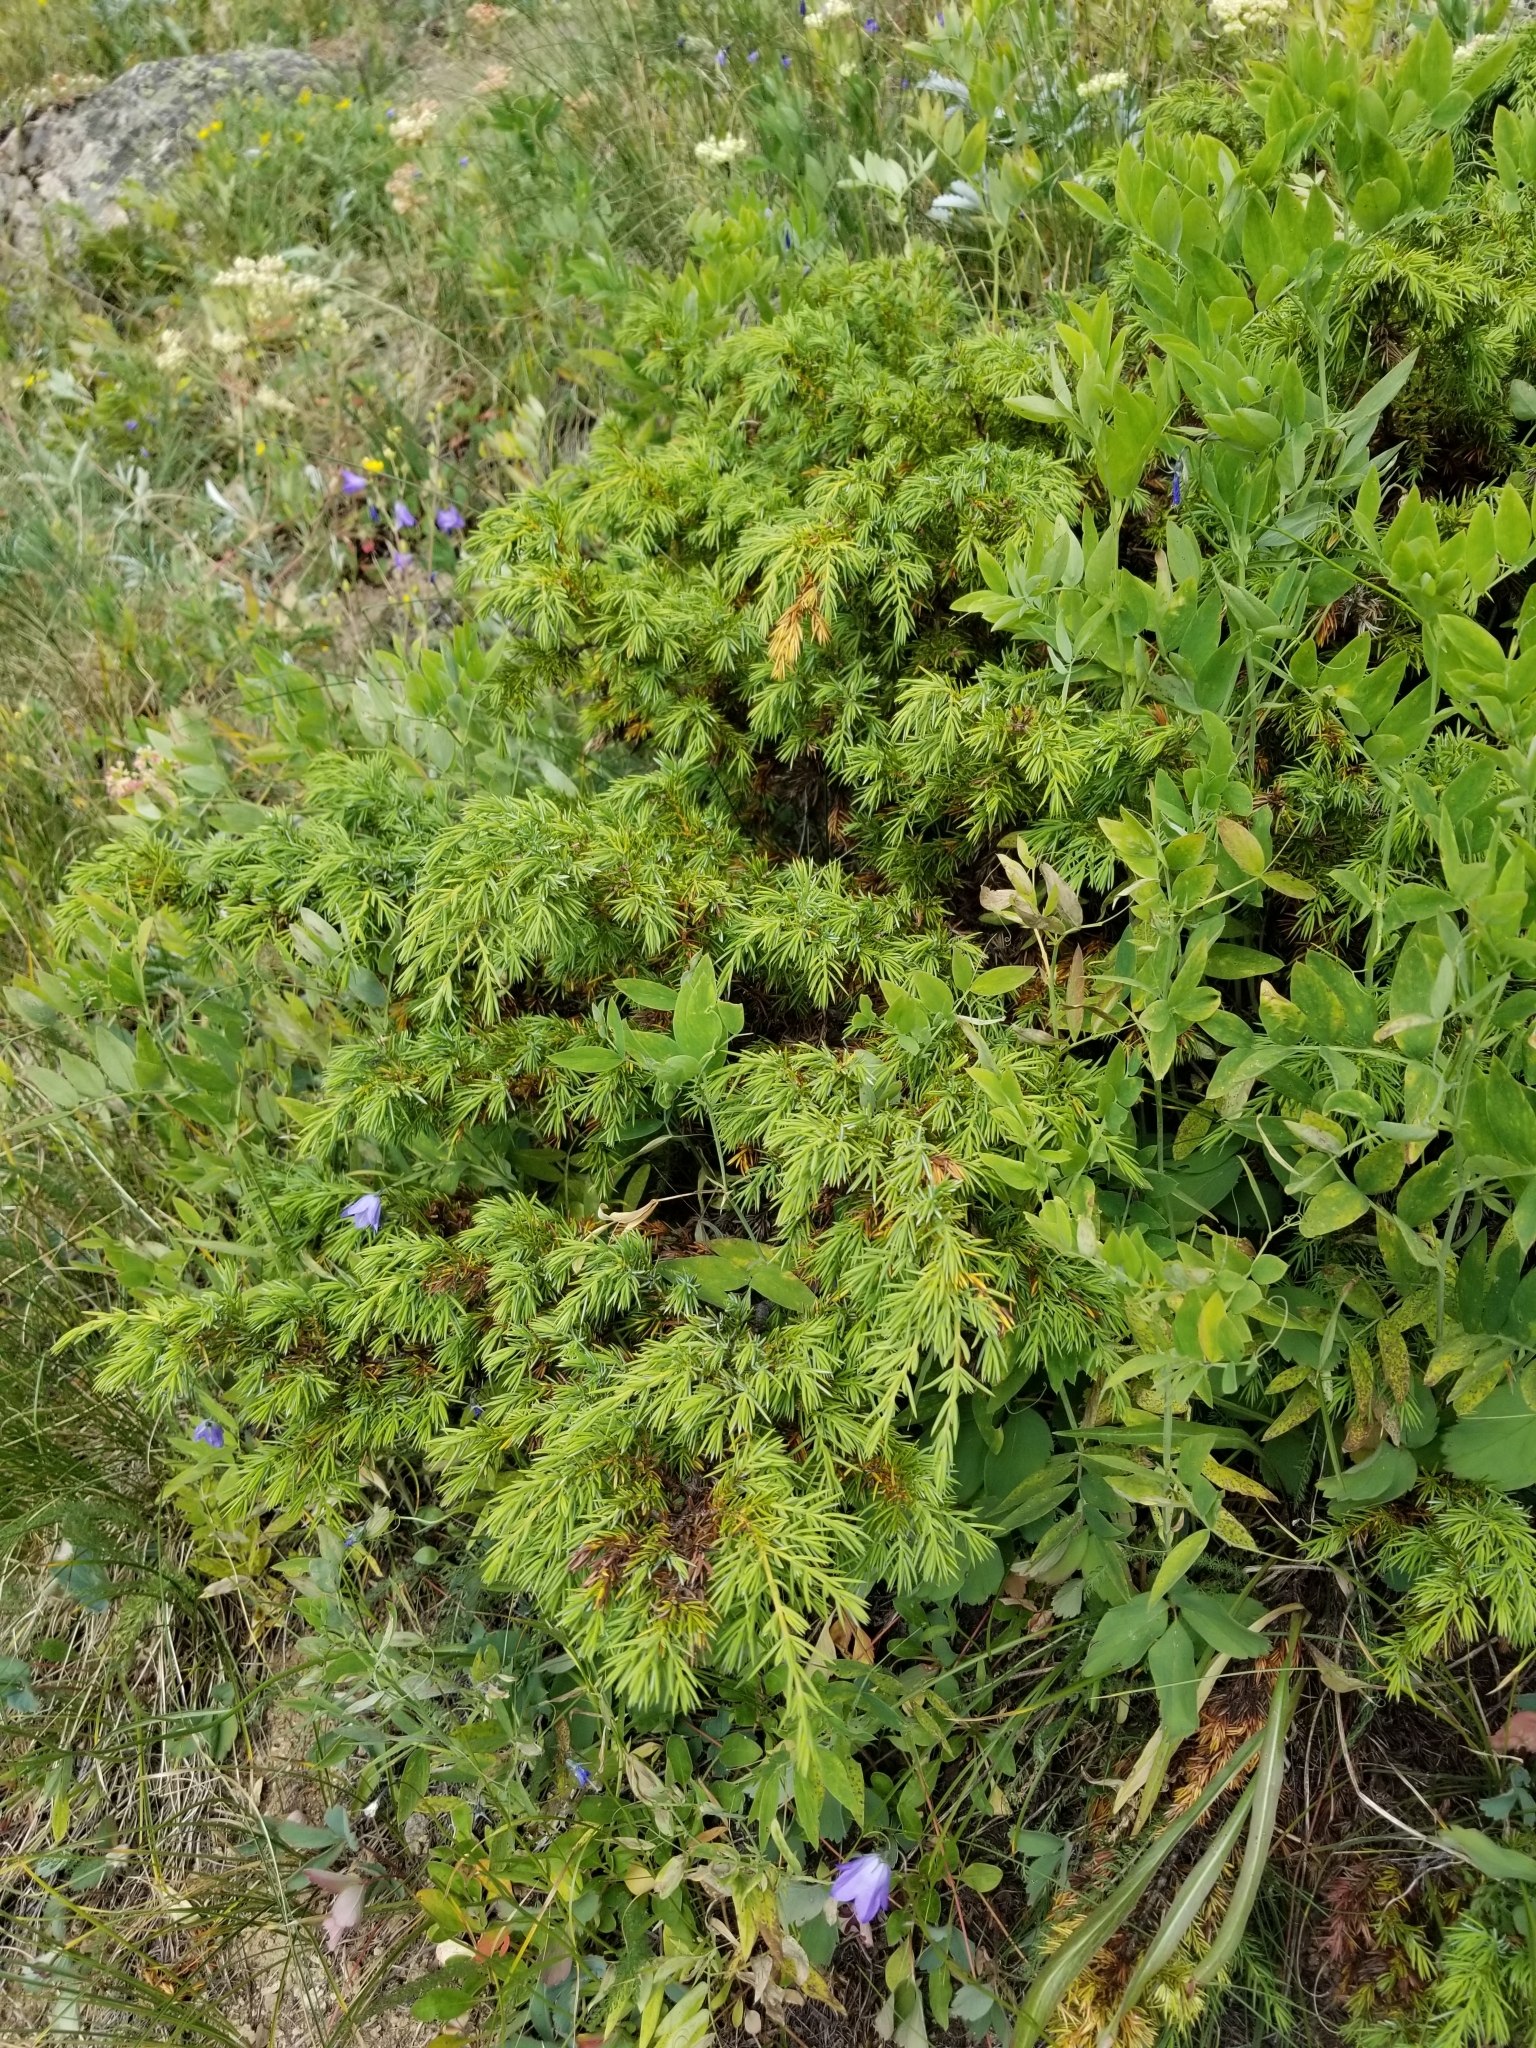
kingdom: Plantae
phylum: Tracheophyta
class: Pinopsida
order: Pinales
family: Cupressaceae
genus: Juniperus
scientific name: Juniperus communis
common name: Common juniper
